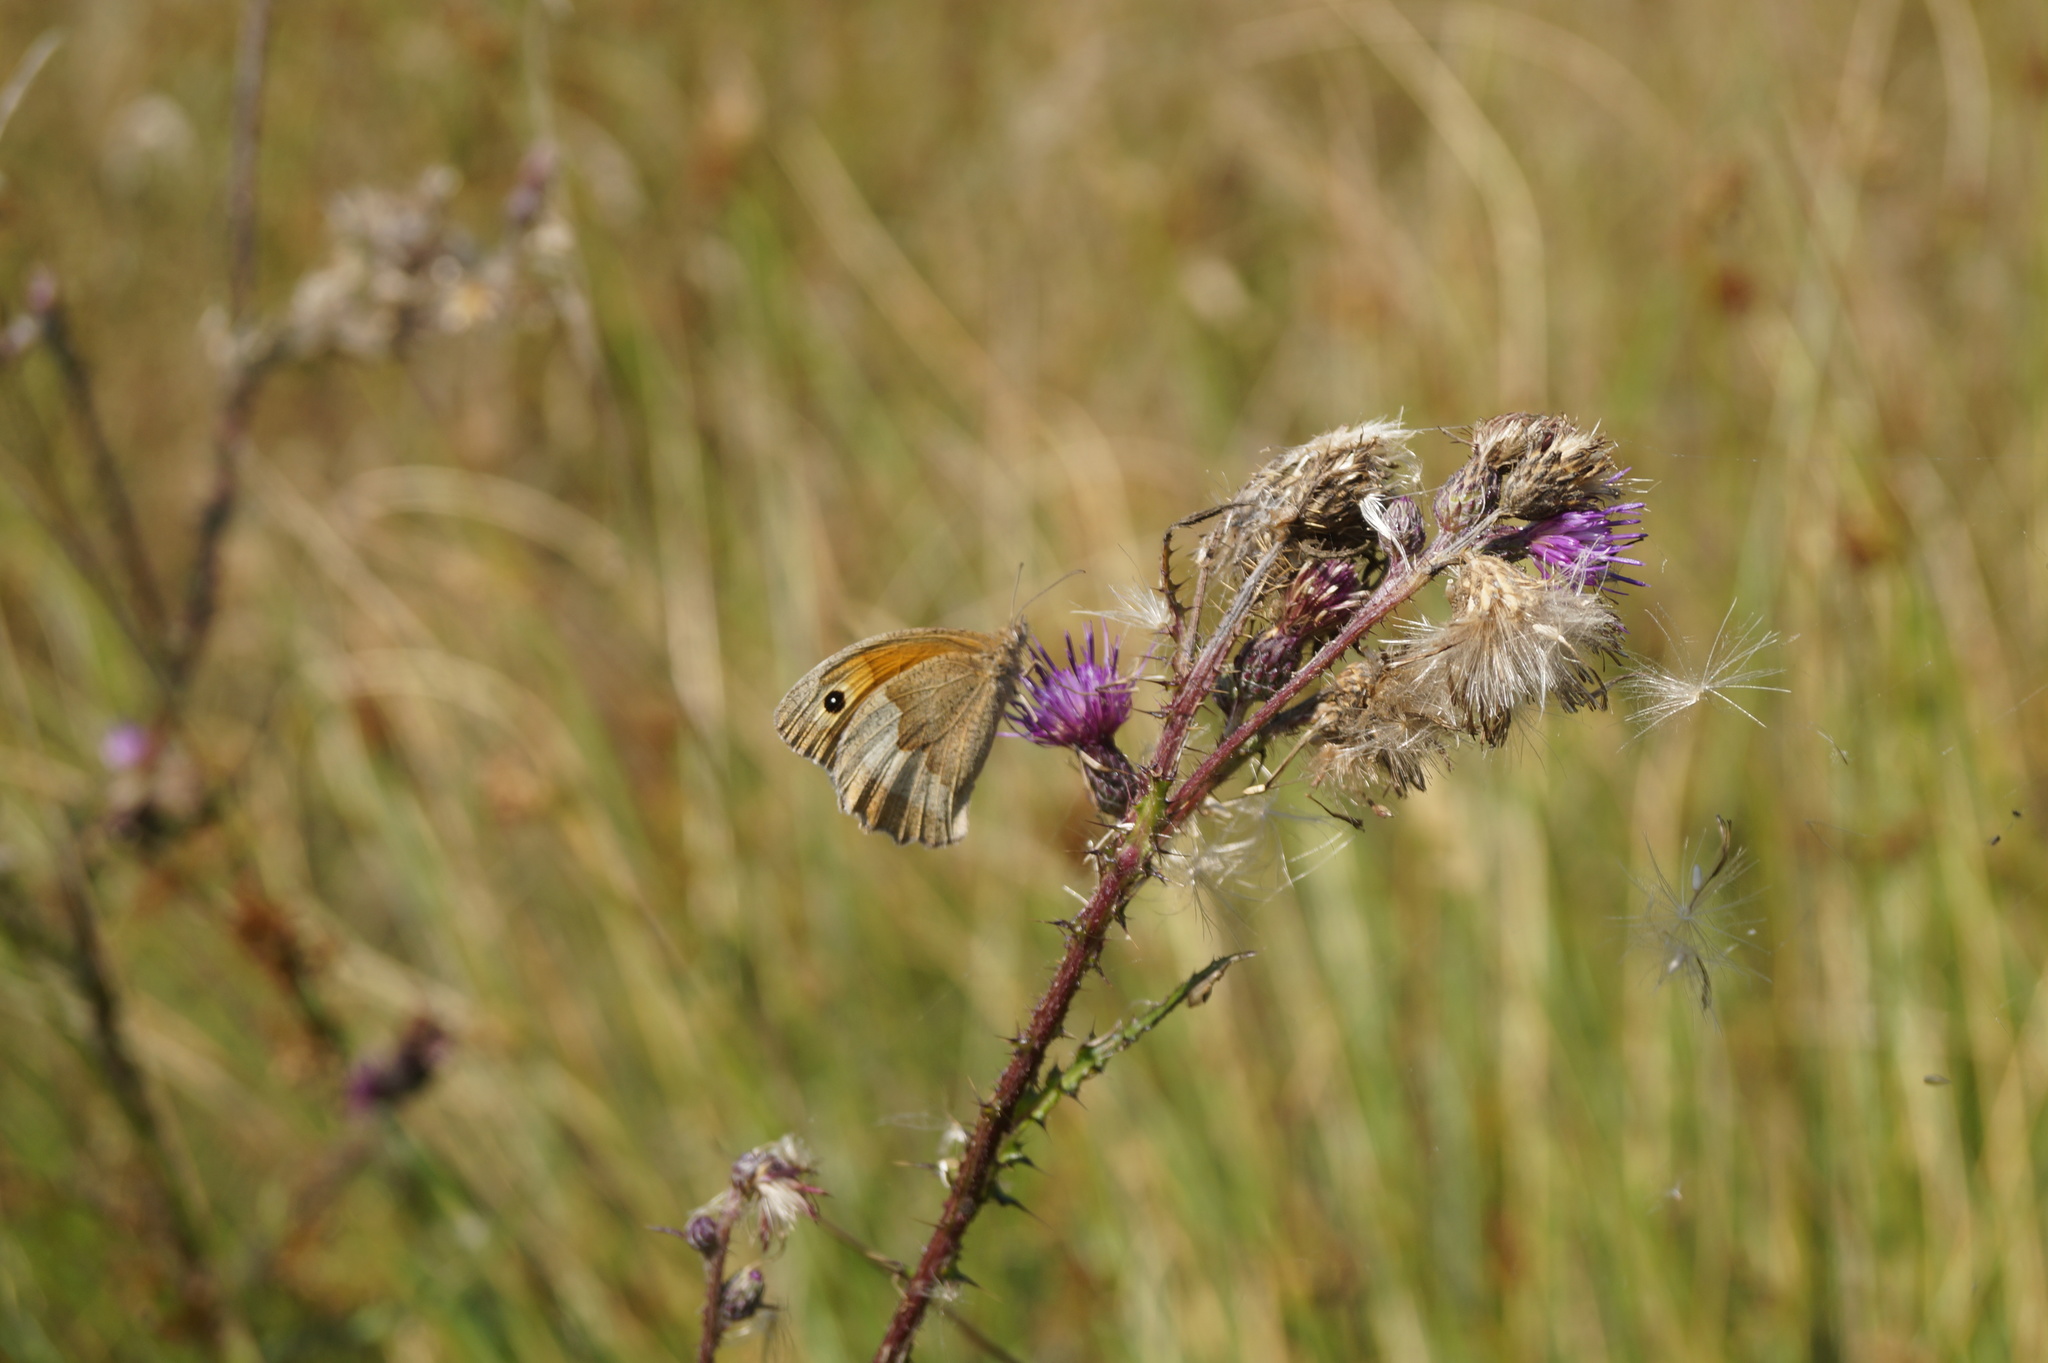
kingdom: Animalia
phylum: Arthropoda
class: Insecta
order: Lepidoptera
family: Nymphalidae
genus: Maniola
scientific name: Maniola jurtina
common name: Meadow brown
